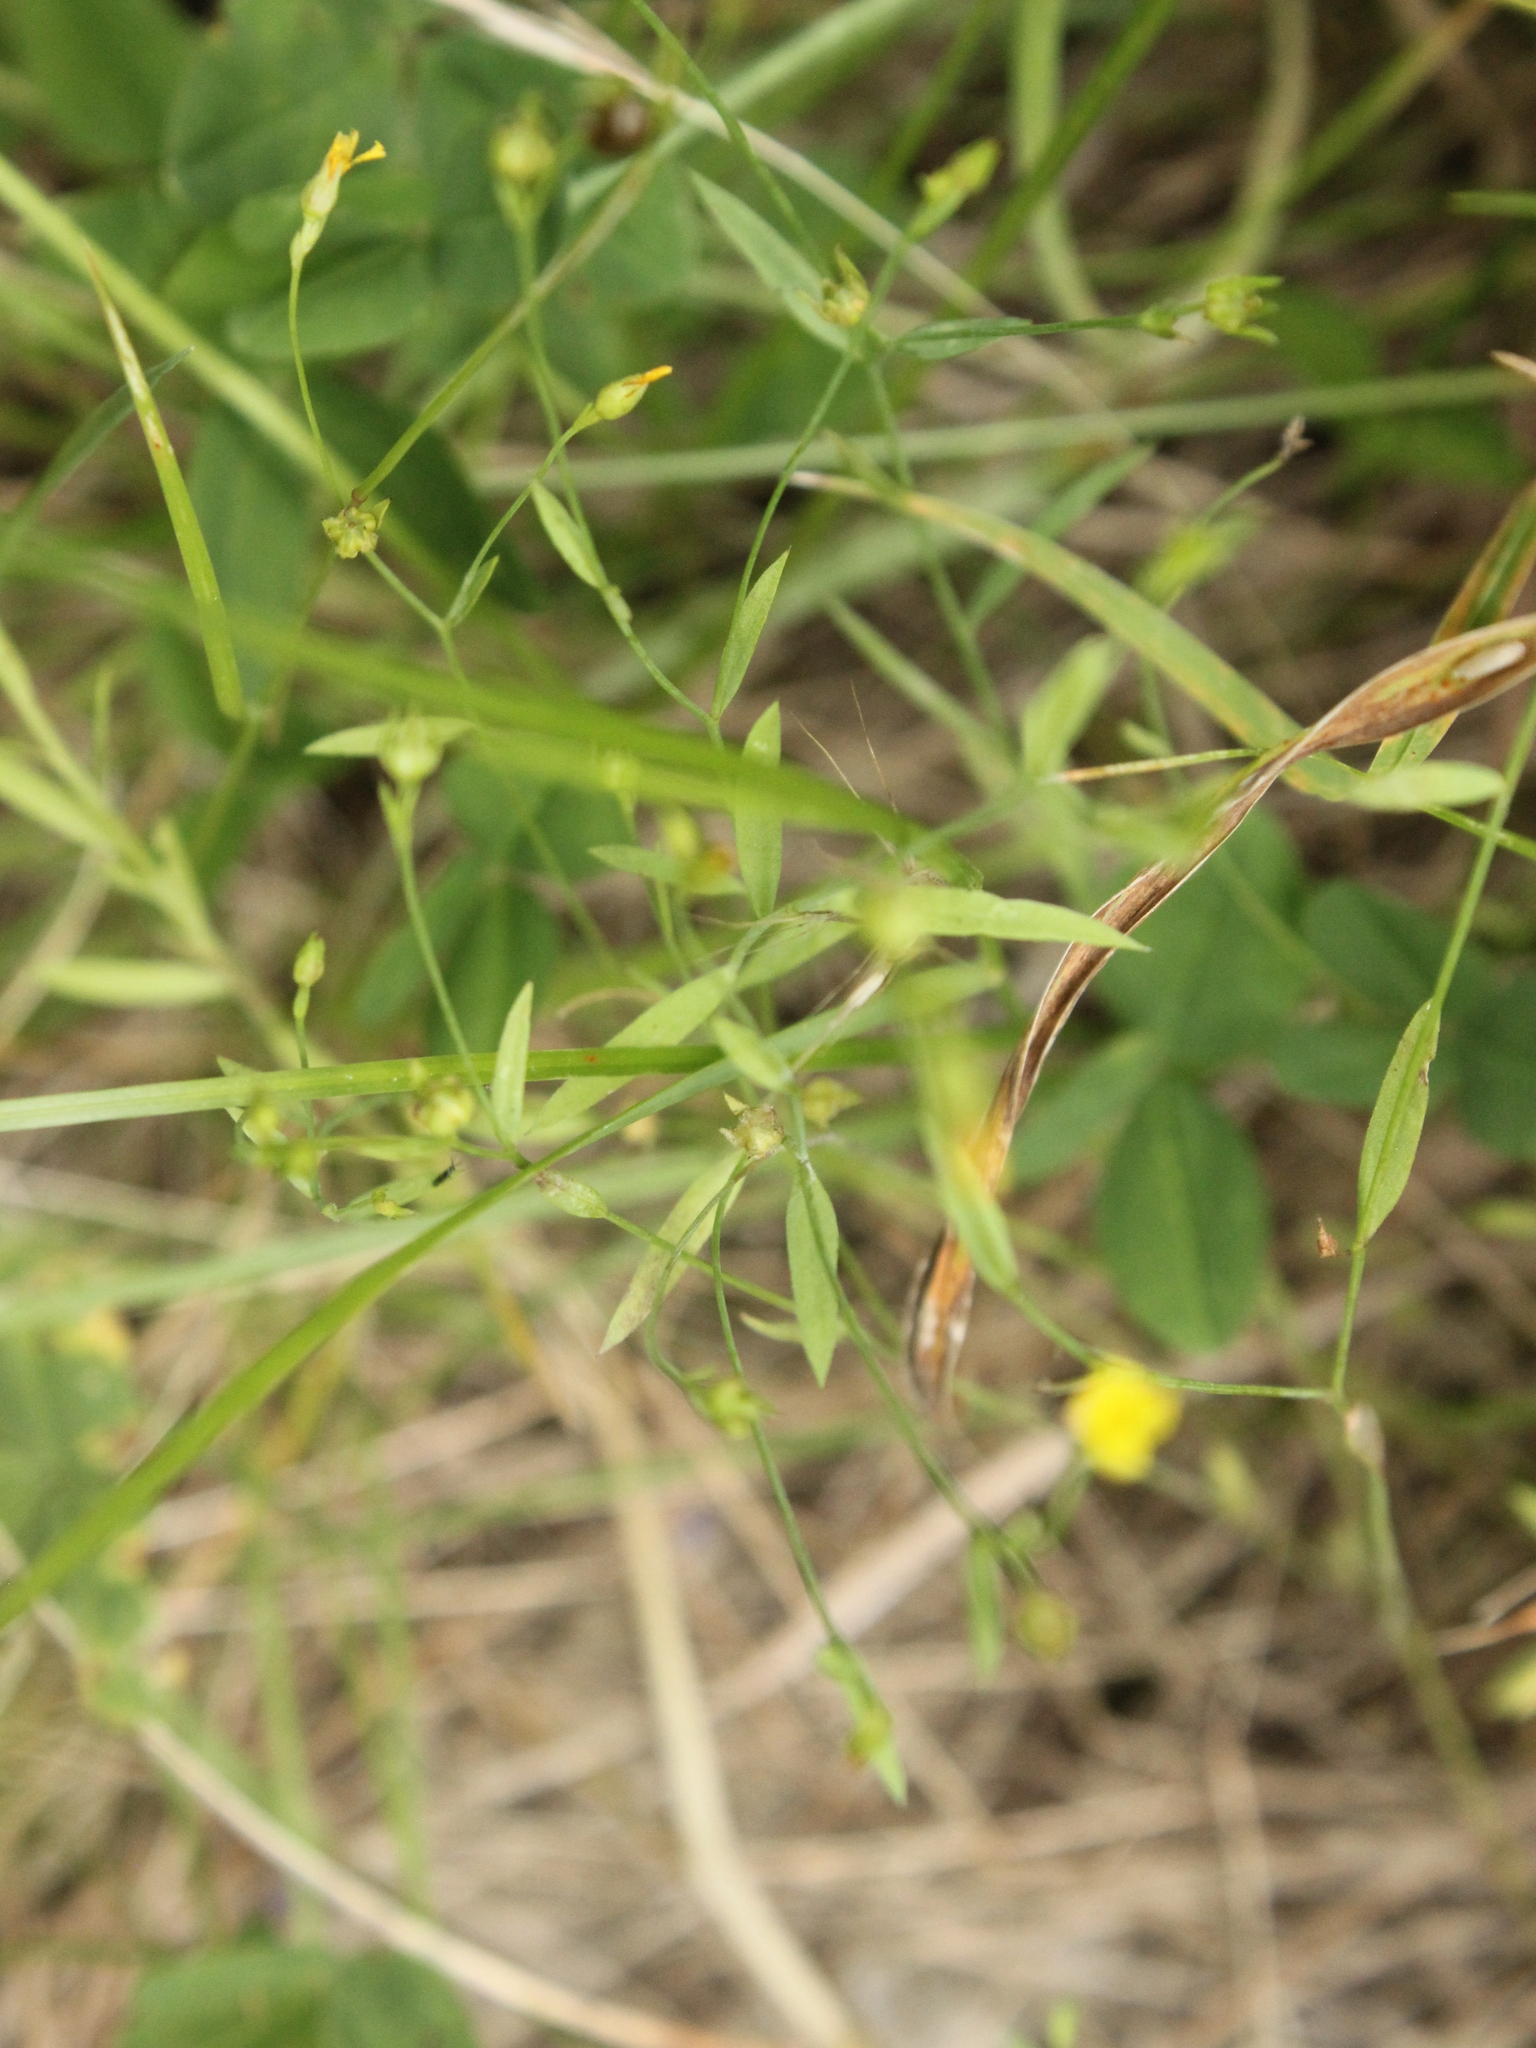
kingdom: Plantae
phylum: Tracheophyta
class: Magnoliopsida
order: Malpighiales
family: Linaceae
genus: Linum
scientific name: Linum trigynum
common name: French flax
